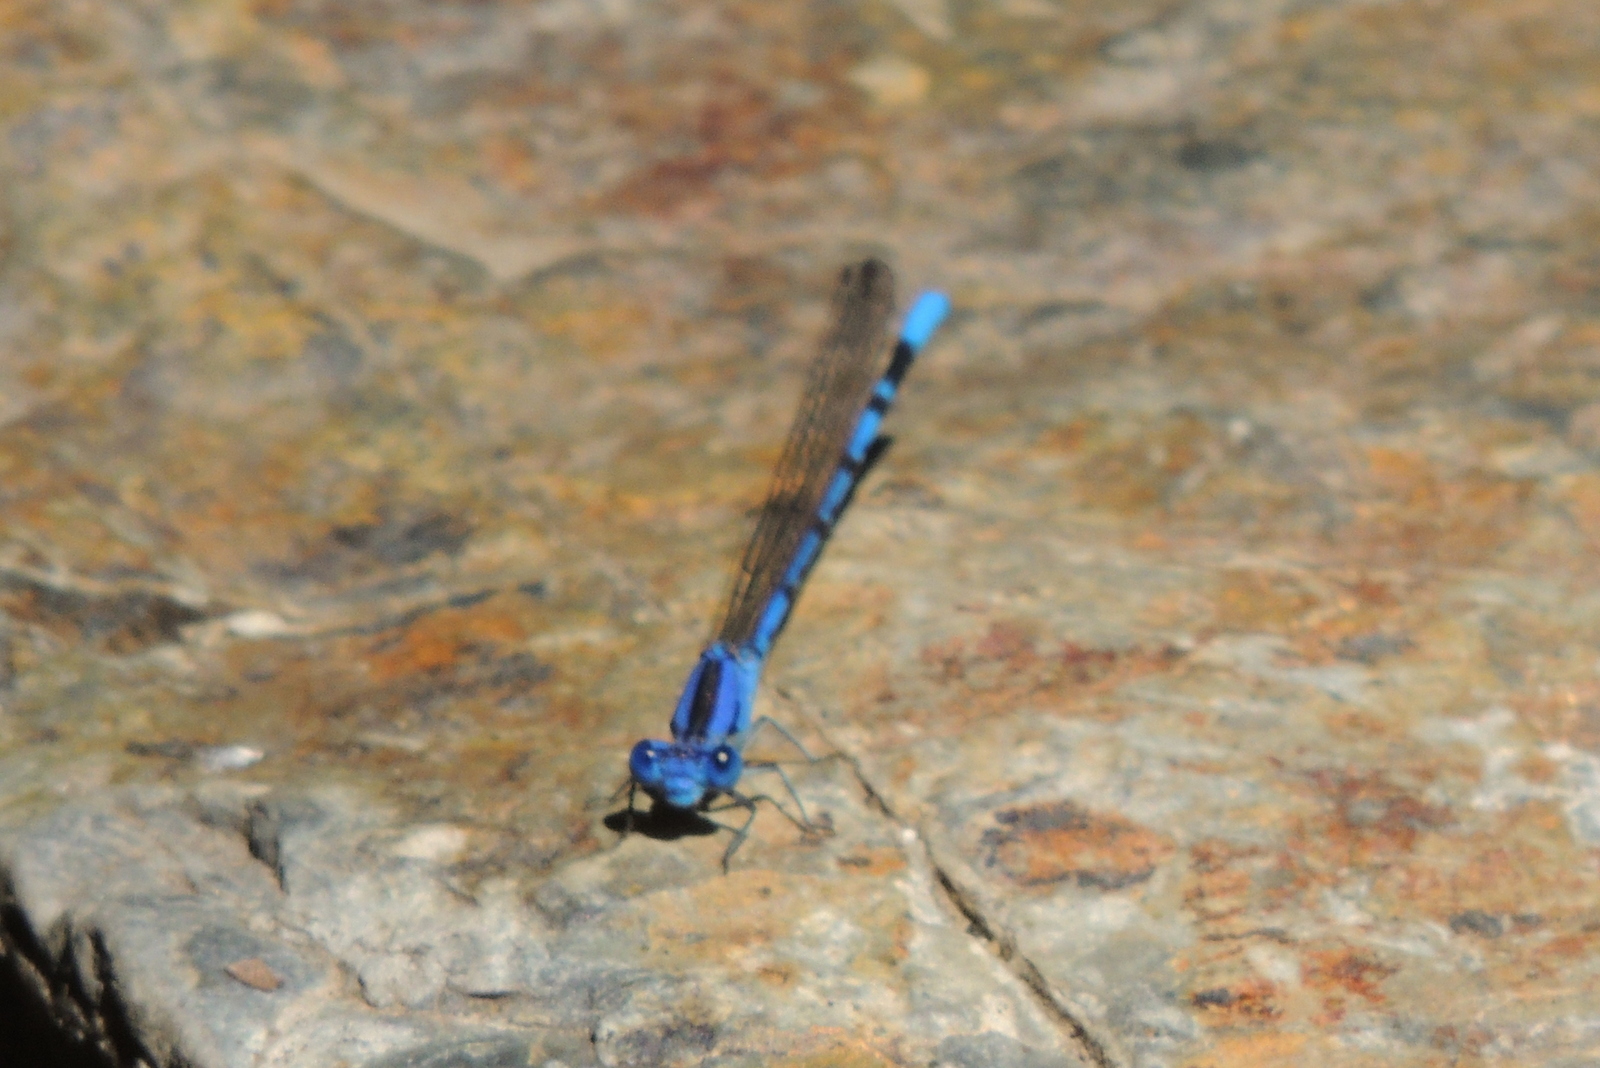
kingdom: Animalia
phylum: Arthropoda
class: Insecta
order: Odonata
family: Coenagrionidae
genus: Argia
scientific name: Argia vivida
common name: Vivid dancer
